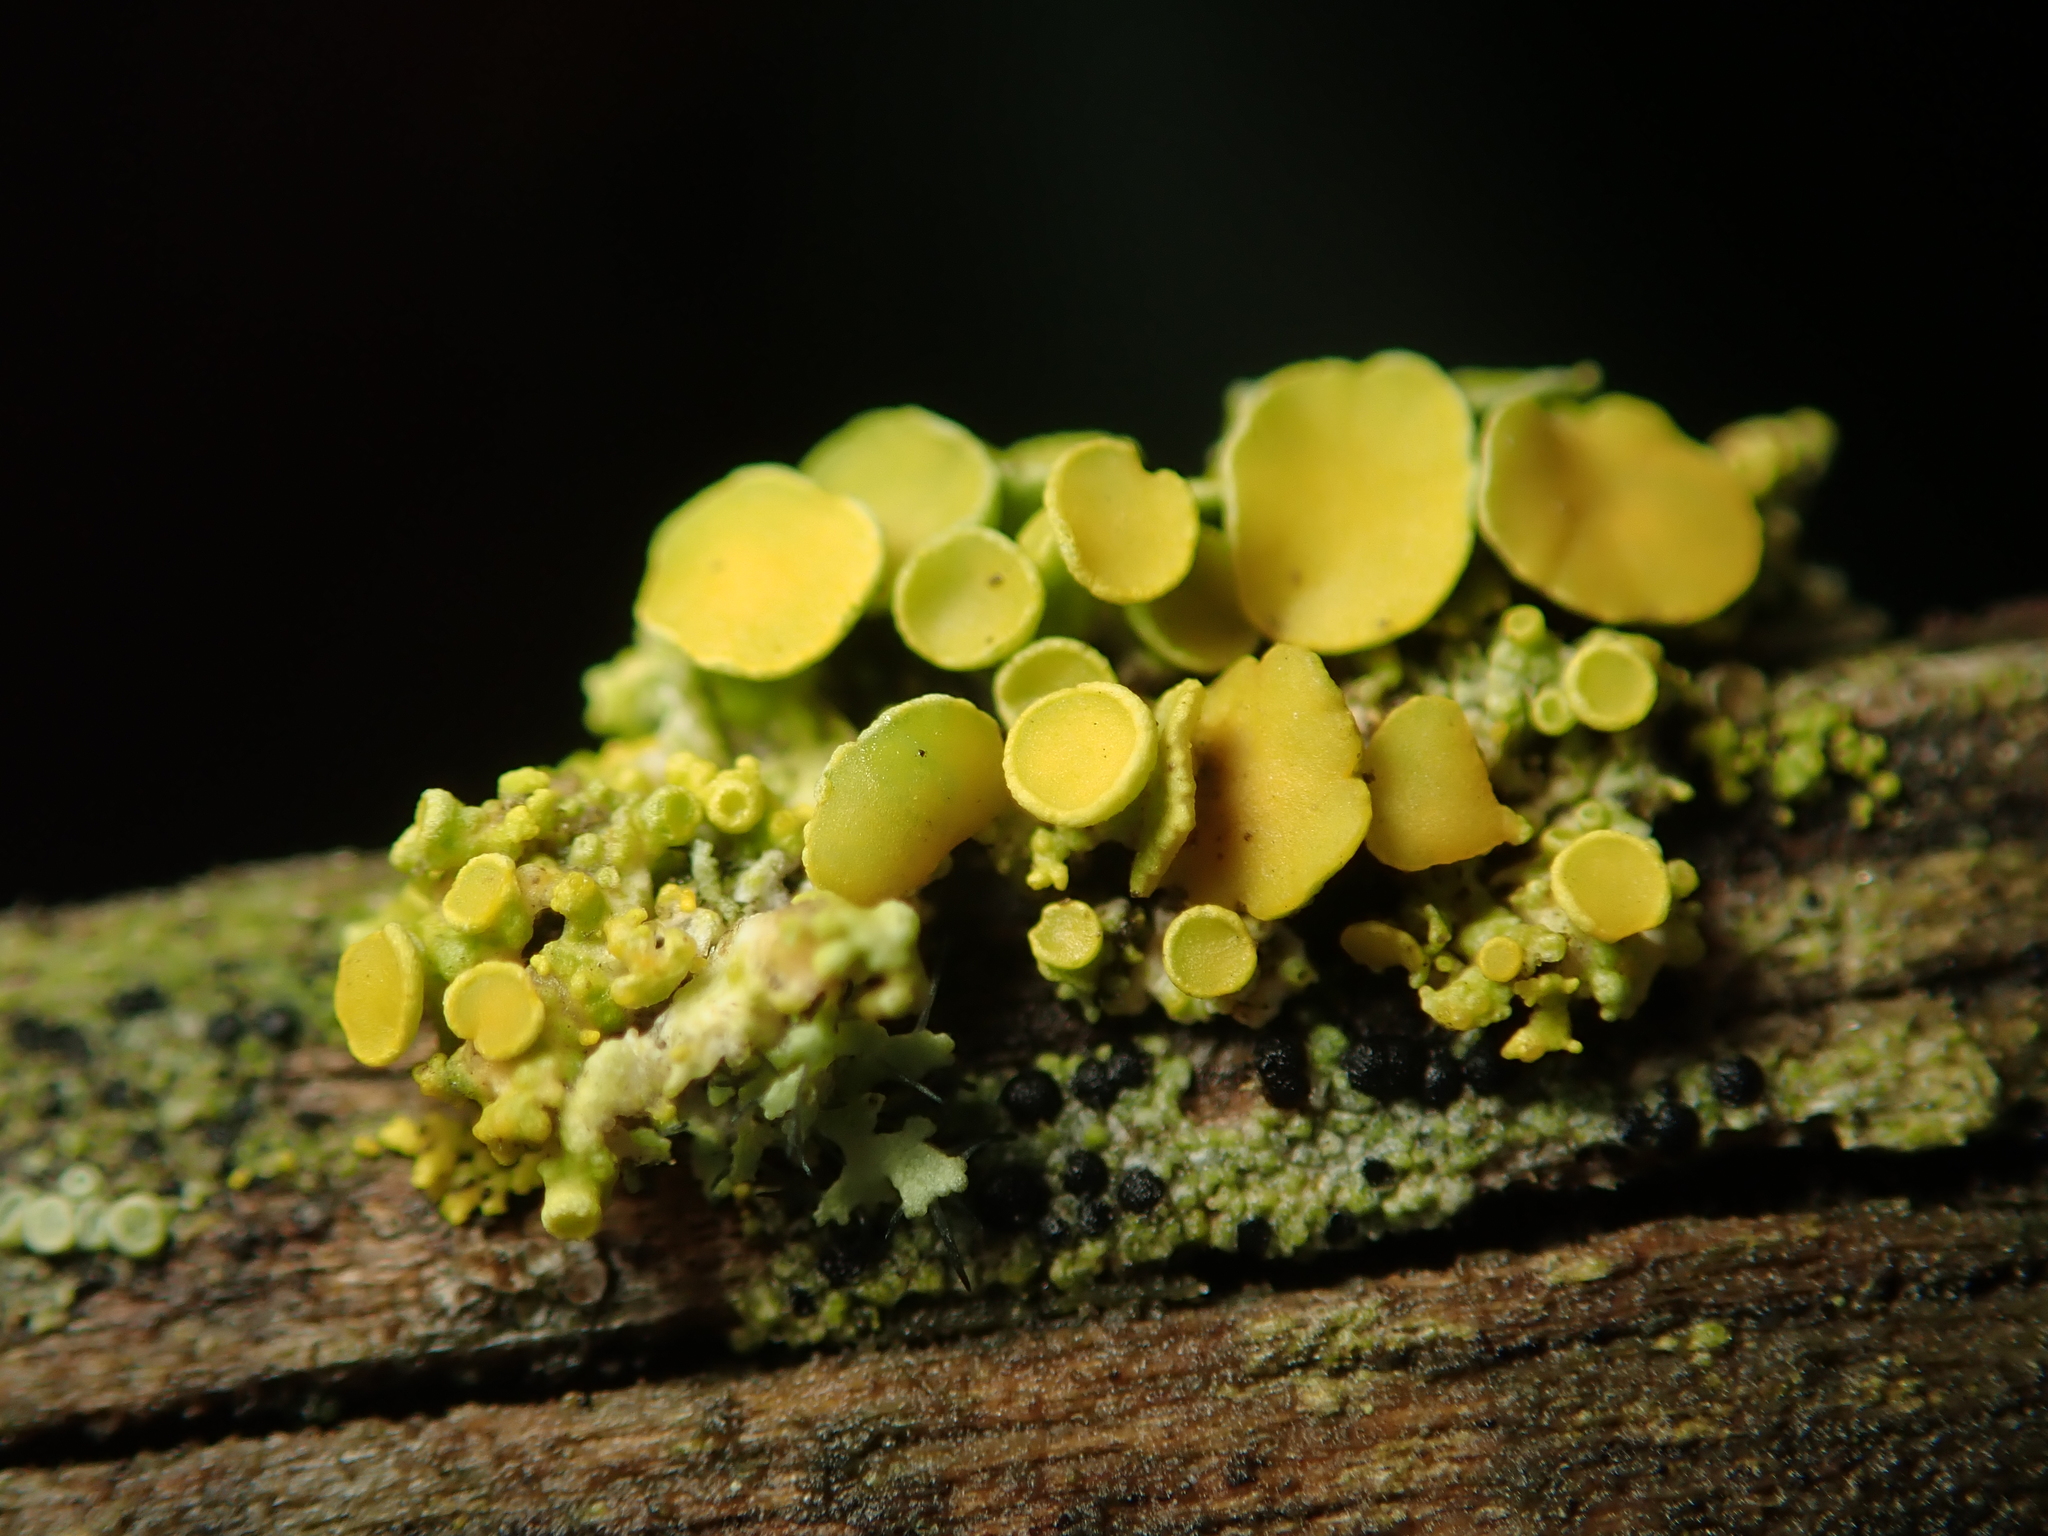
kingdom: Fungi
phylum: Ascomycota
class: Lecanoromycetes
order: Teloschistales
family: Teloschistaceae
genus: Polycauliona
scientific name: Polycauliona polycarpa
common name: Pin-cushion sunburst lichen
